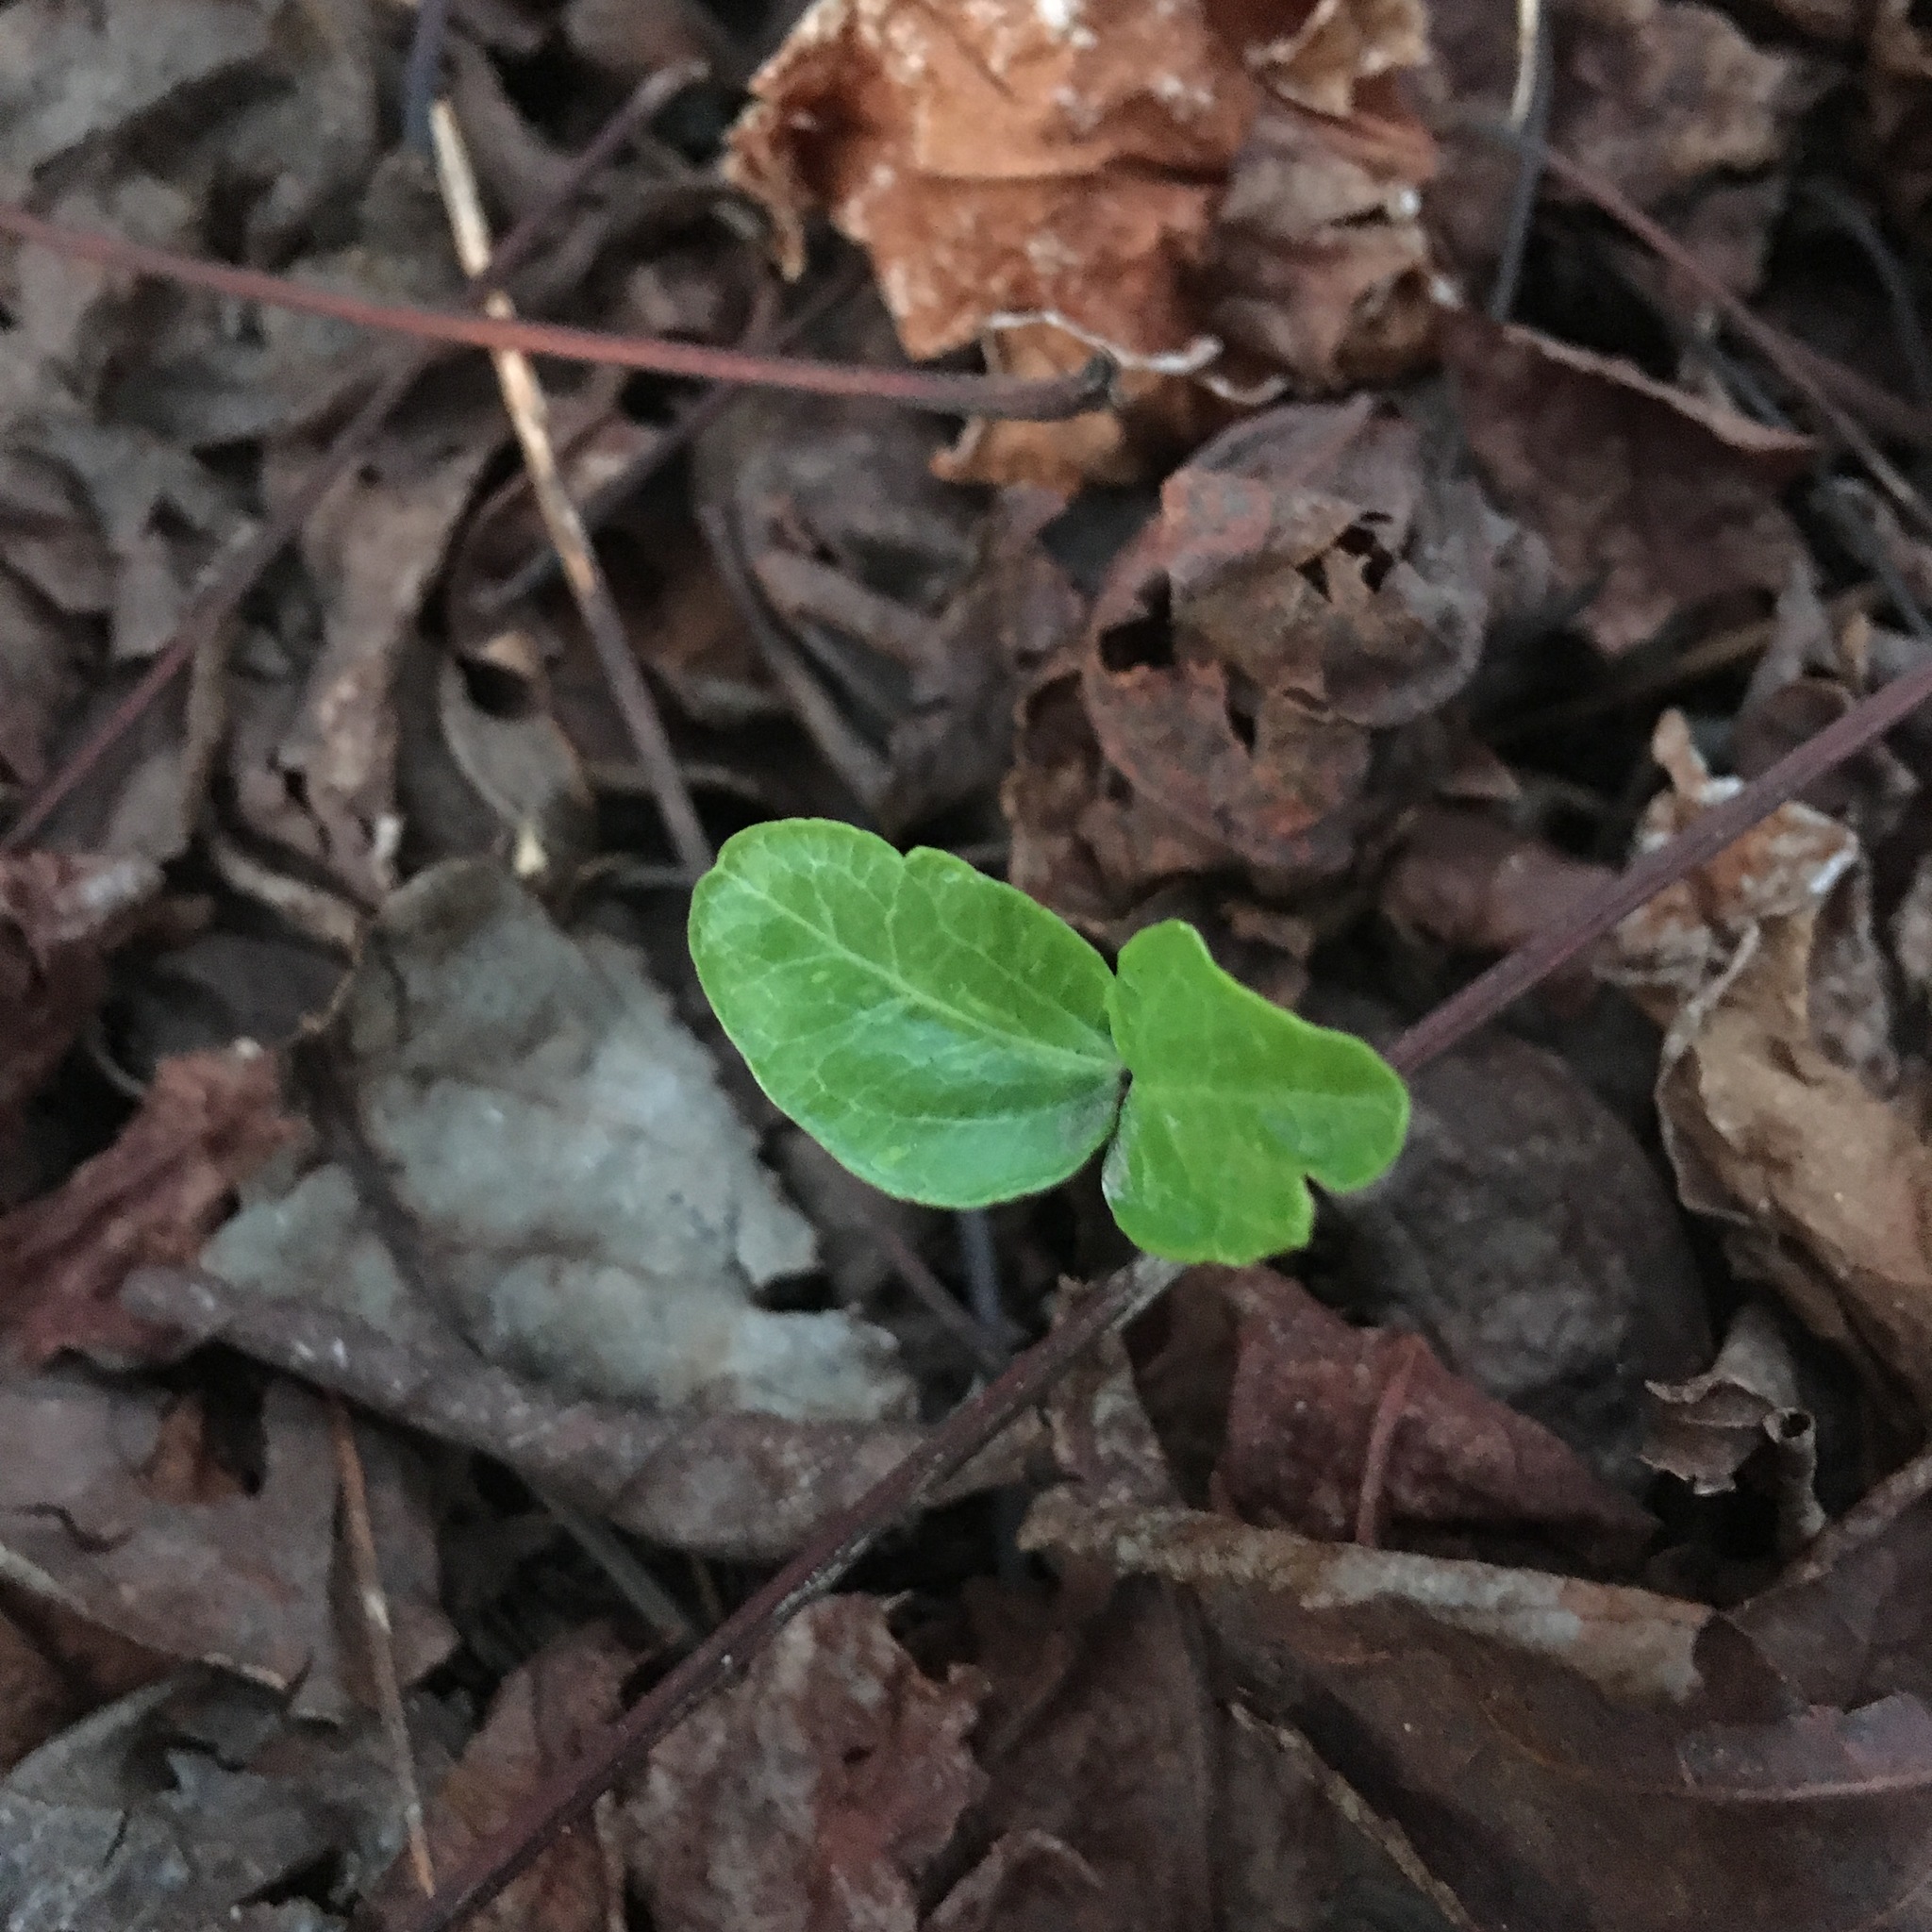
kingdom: Plantae
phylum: Tracheophyta
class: Magnoliopsida
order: Apiales
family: Araliaceae
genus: Hedera
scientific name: Hedera helix
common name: Ivy
